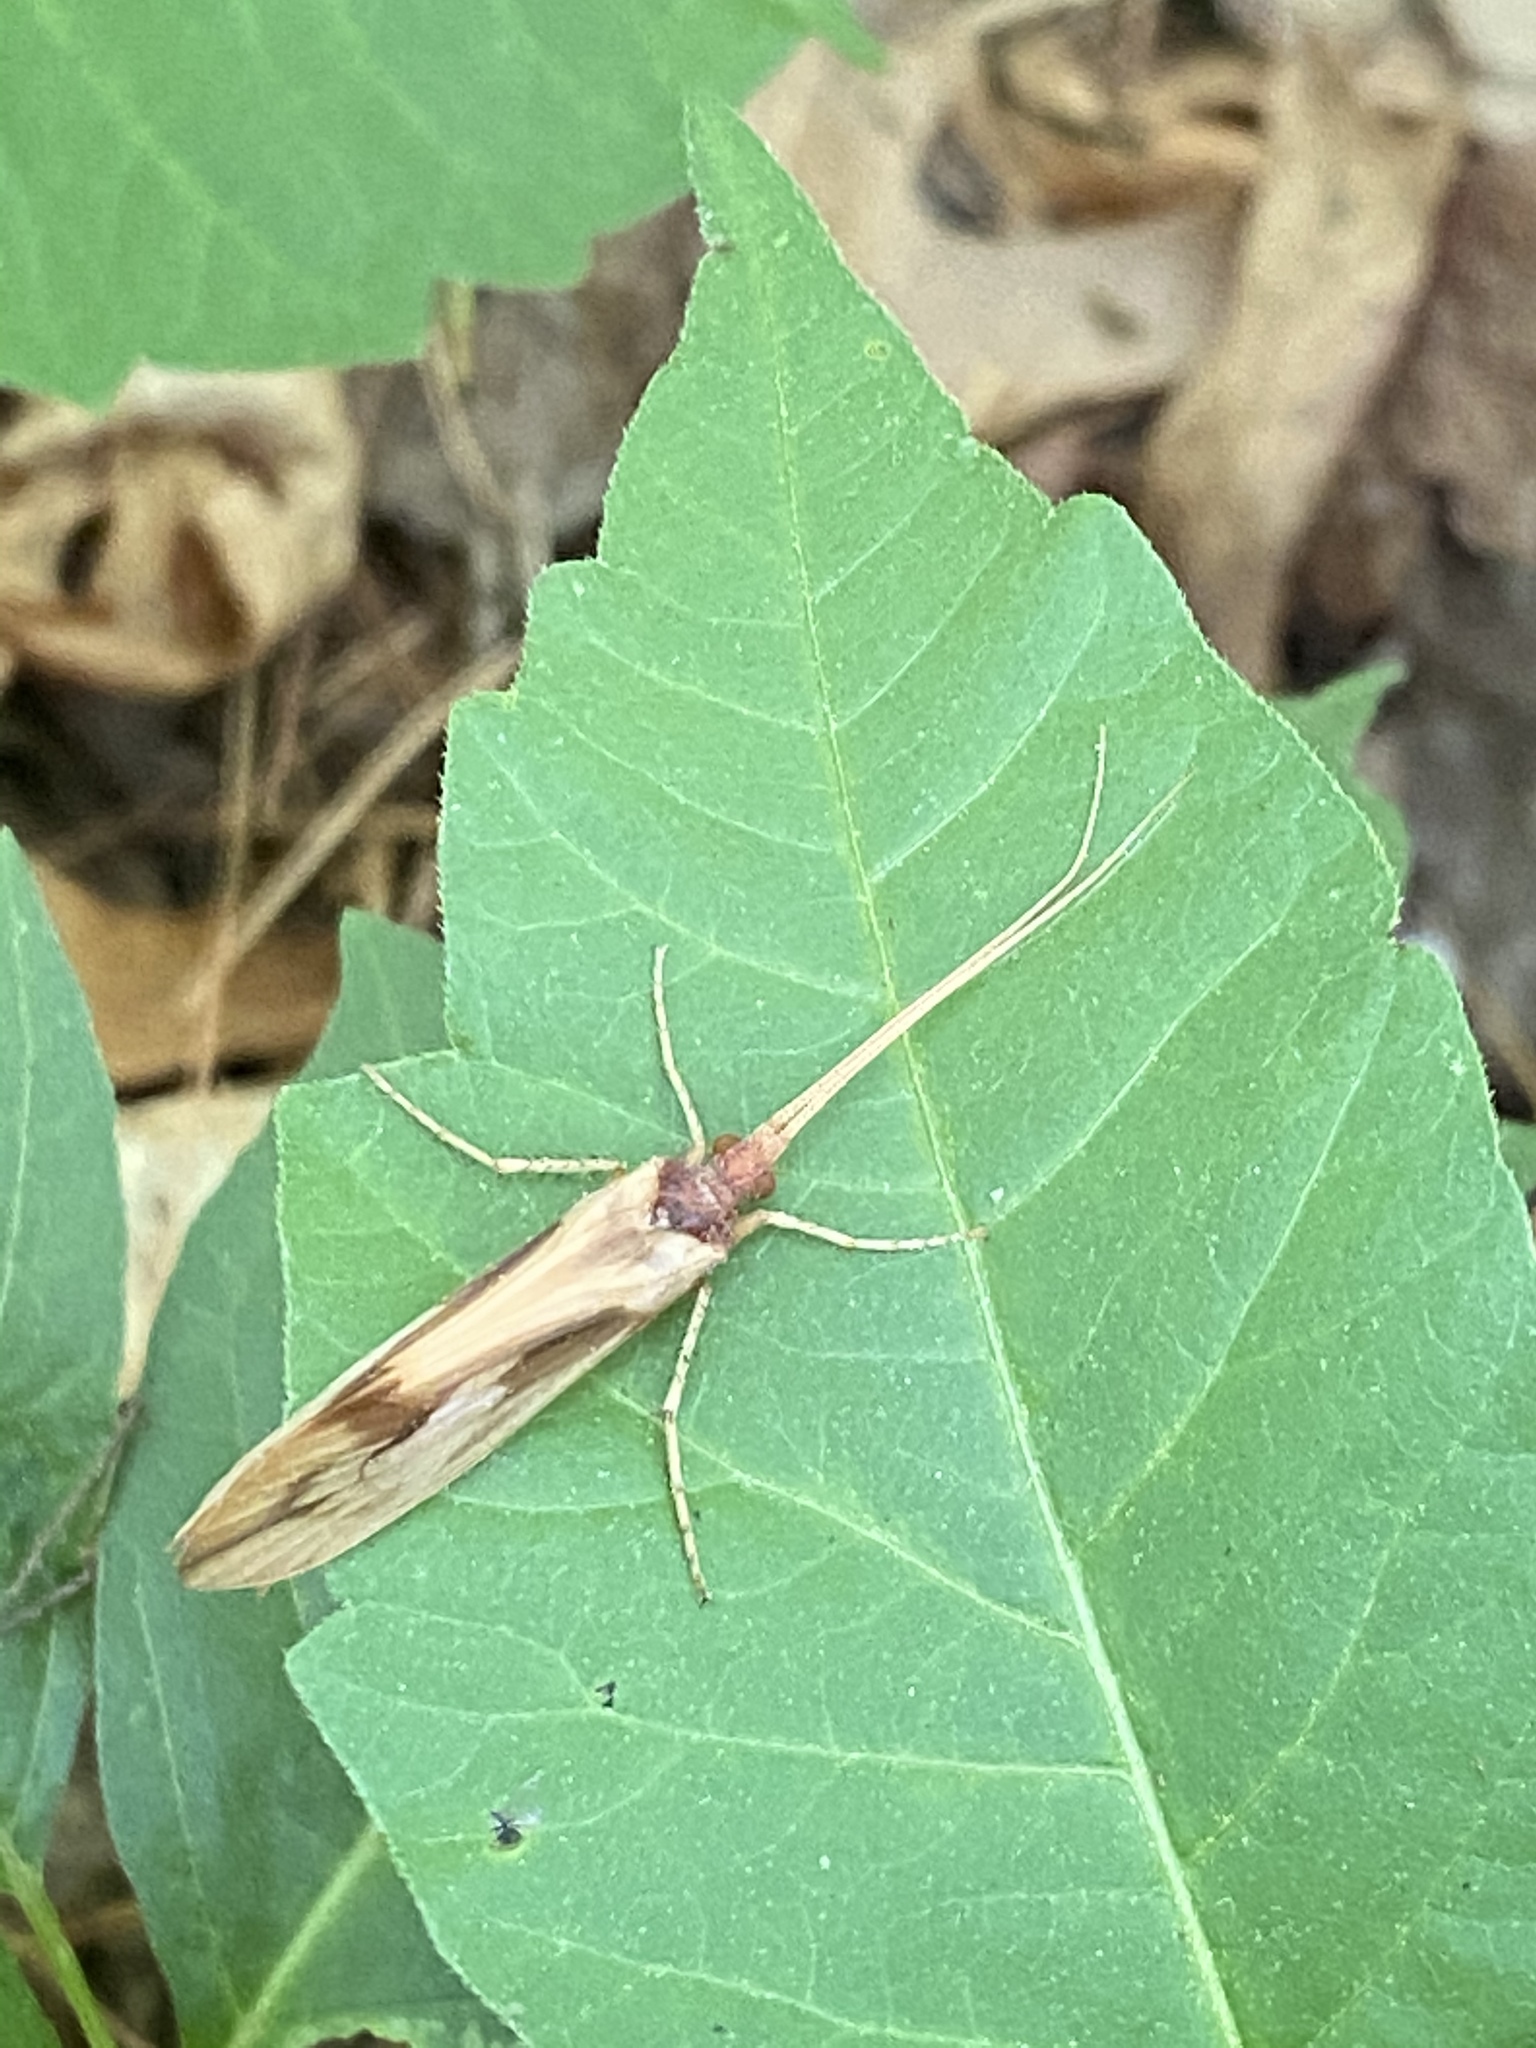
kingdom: Animalia
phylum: Arthropoda
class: Insecta
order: Trichoptera
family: Limnephilidae
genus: Platycentropus
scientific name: Platycentropus radiatus
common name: Chocolate-and-cream sedge
